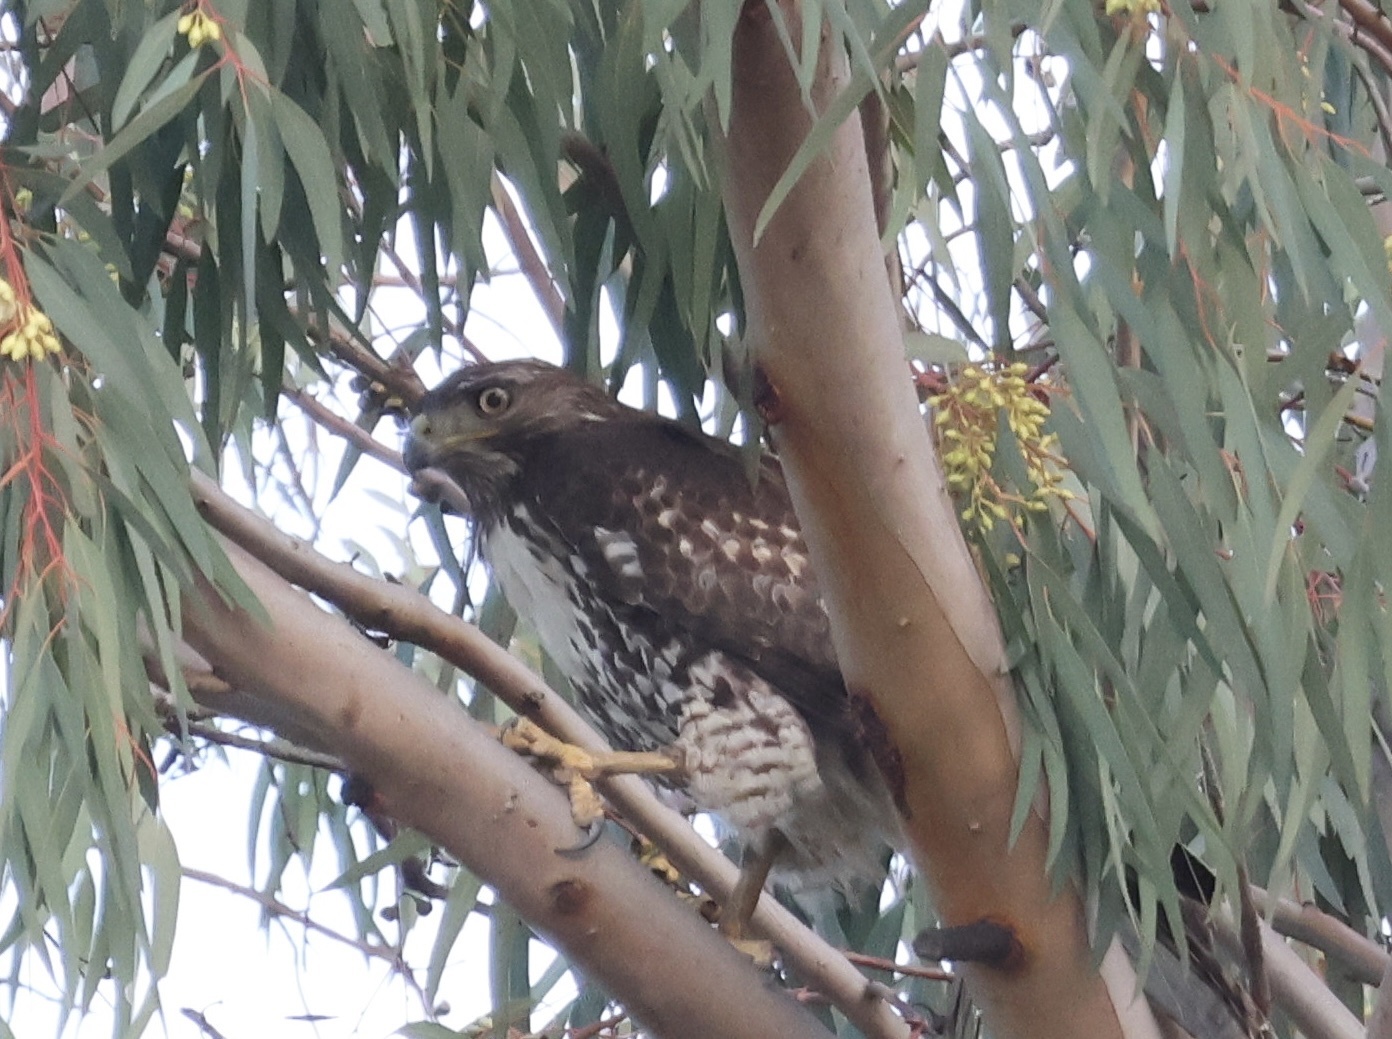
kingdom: Animalia
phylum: Chordata
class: Aves
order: Accipitriformes
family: Accipitridae
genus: Buteo
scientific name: Buteo jamaicensis
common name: Red-tailed hawk
